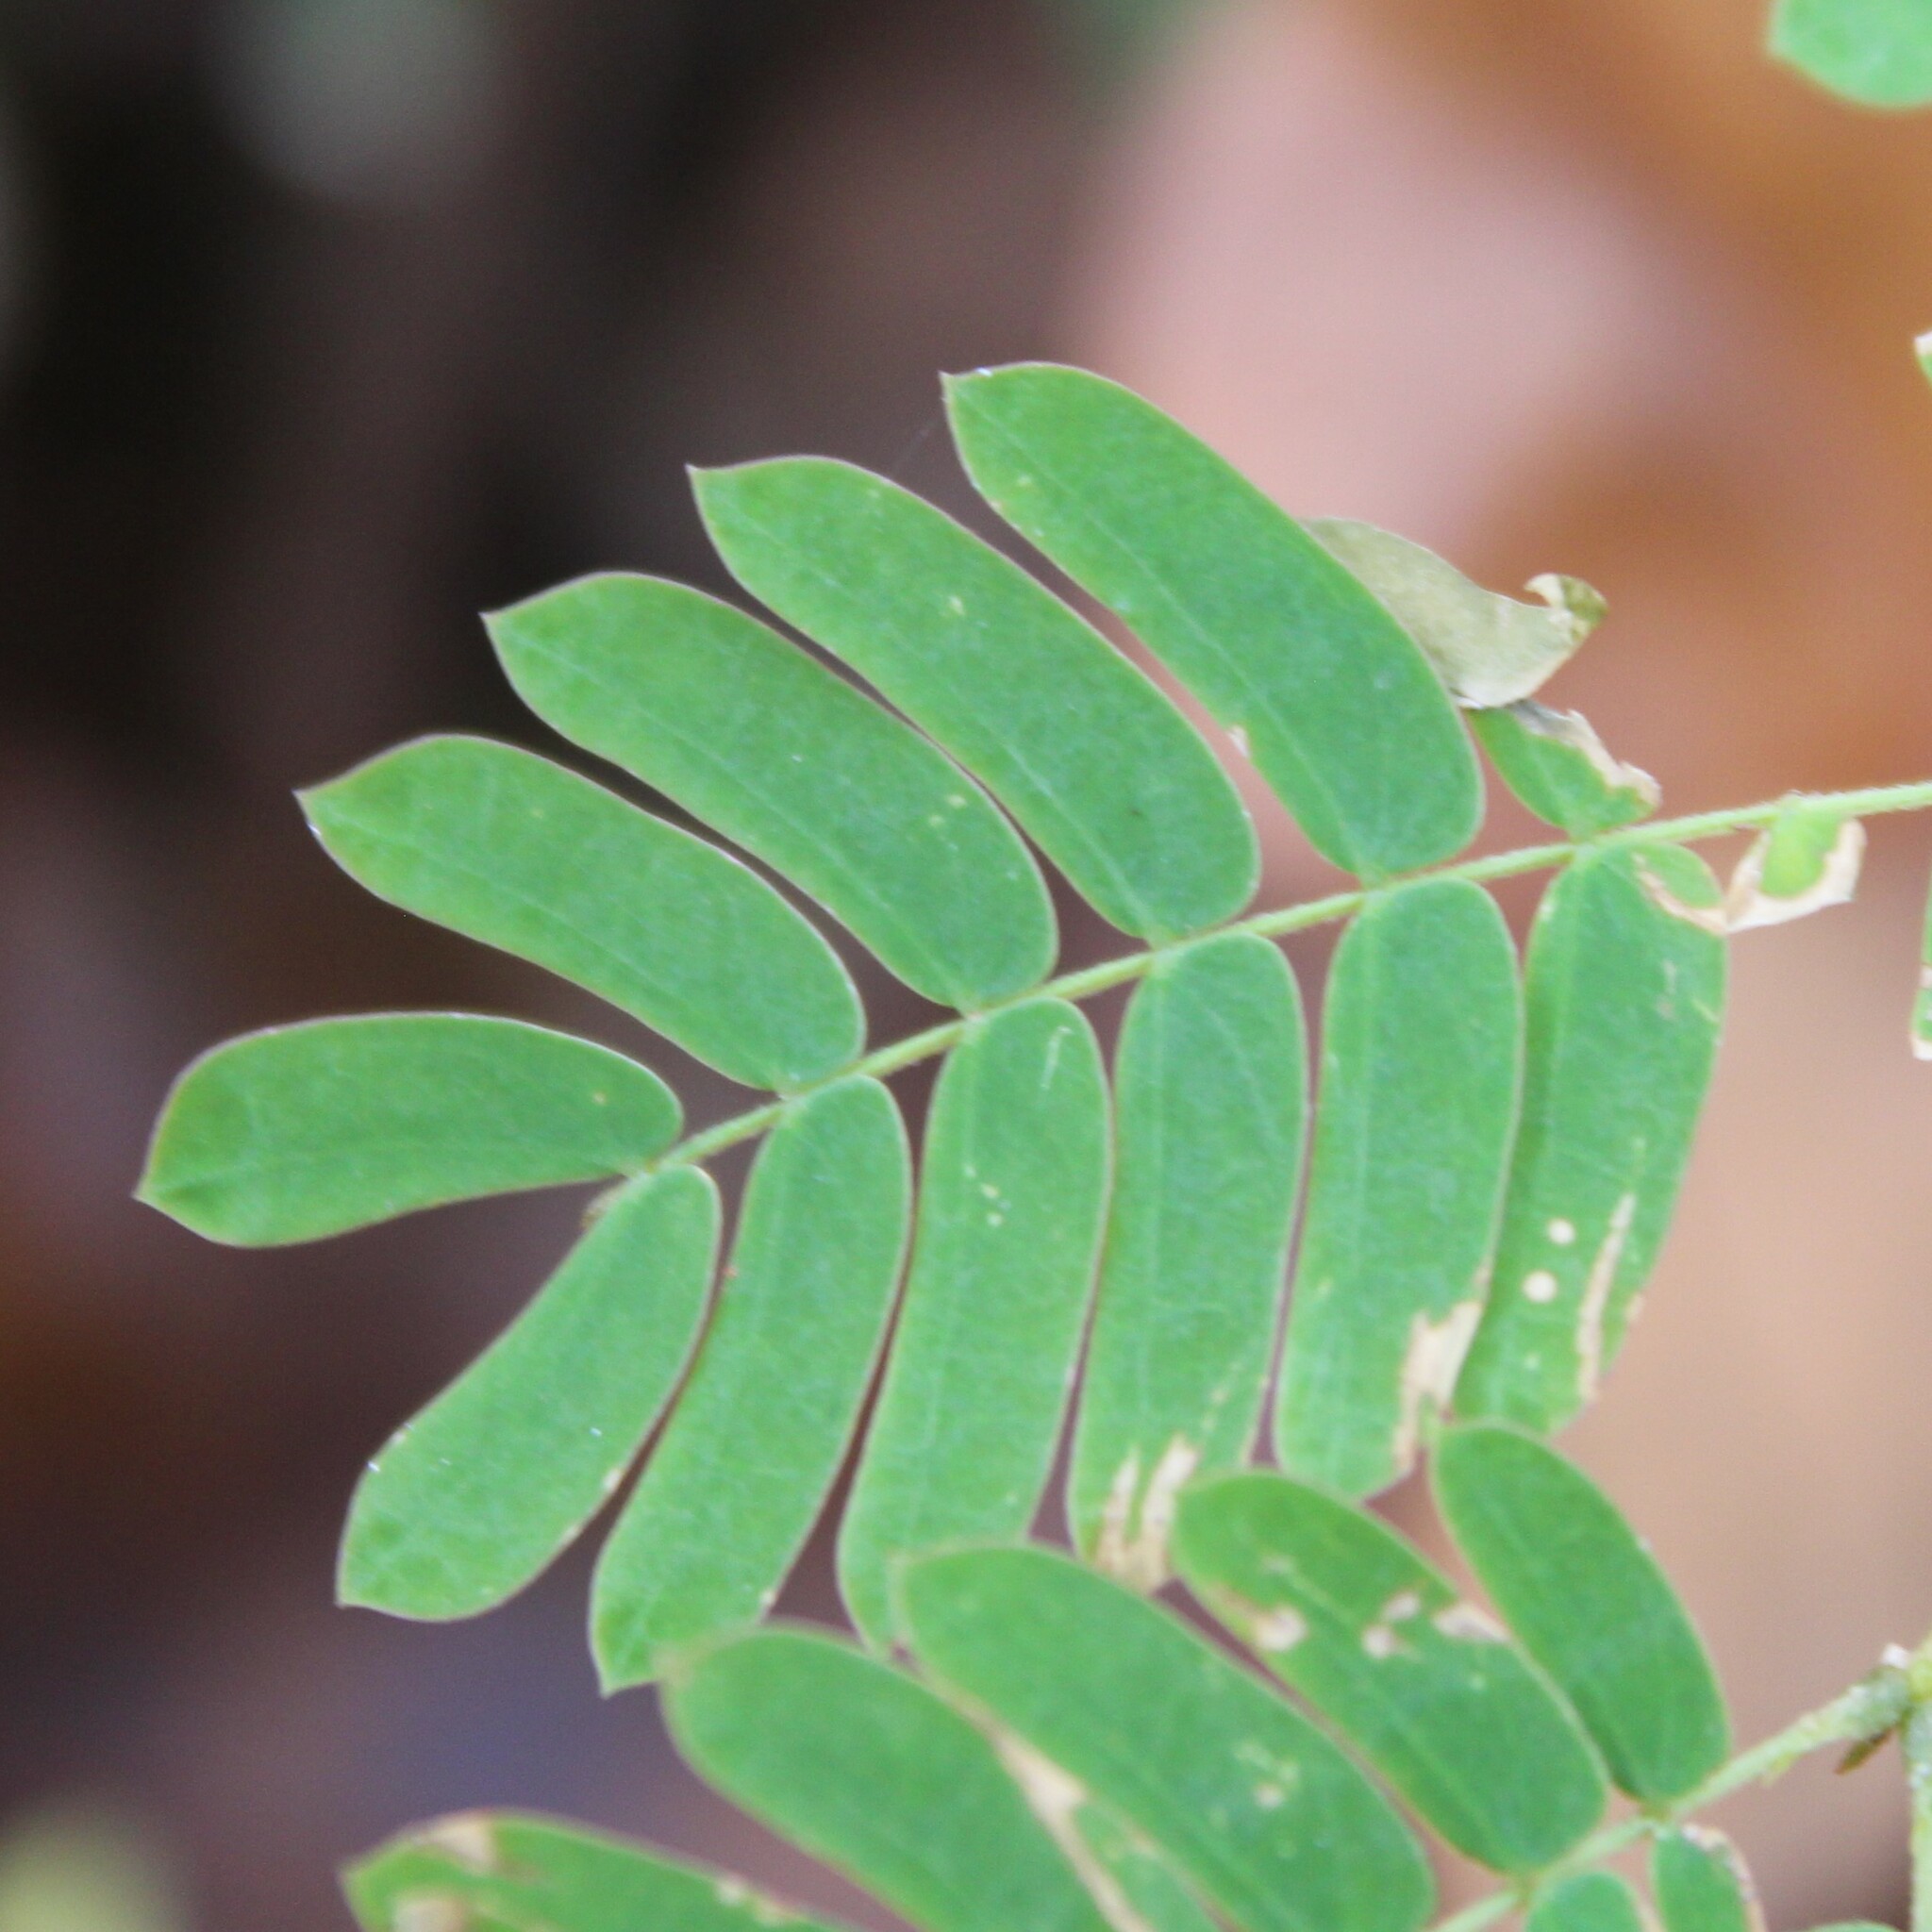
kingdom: Plantae
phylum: Tracheophyta
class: Magnoliopsida
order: Fabales
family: Fabaceae
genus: Albizia
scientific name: Albizia julibrissin
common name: Silktree
